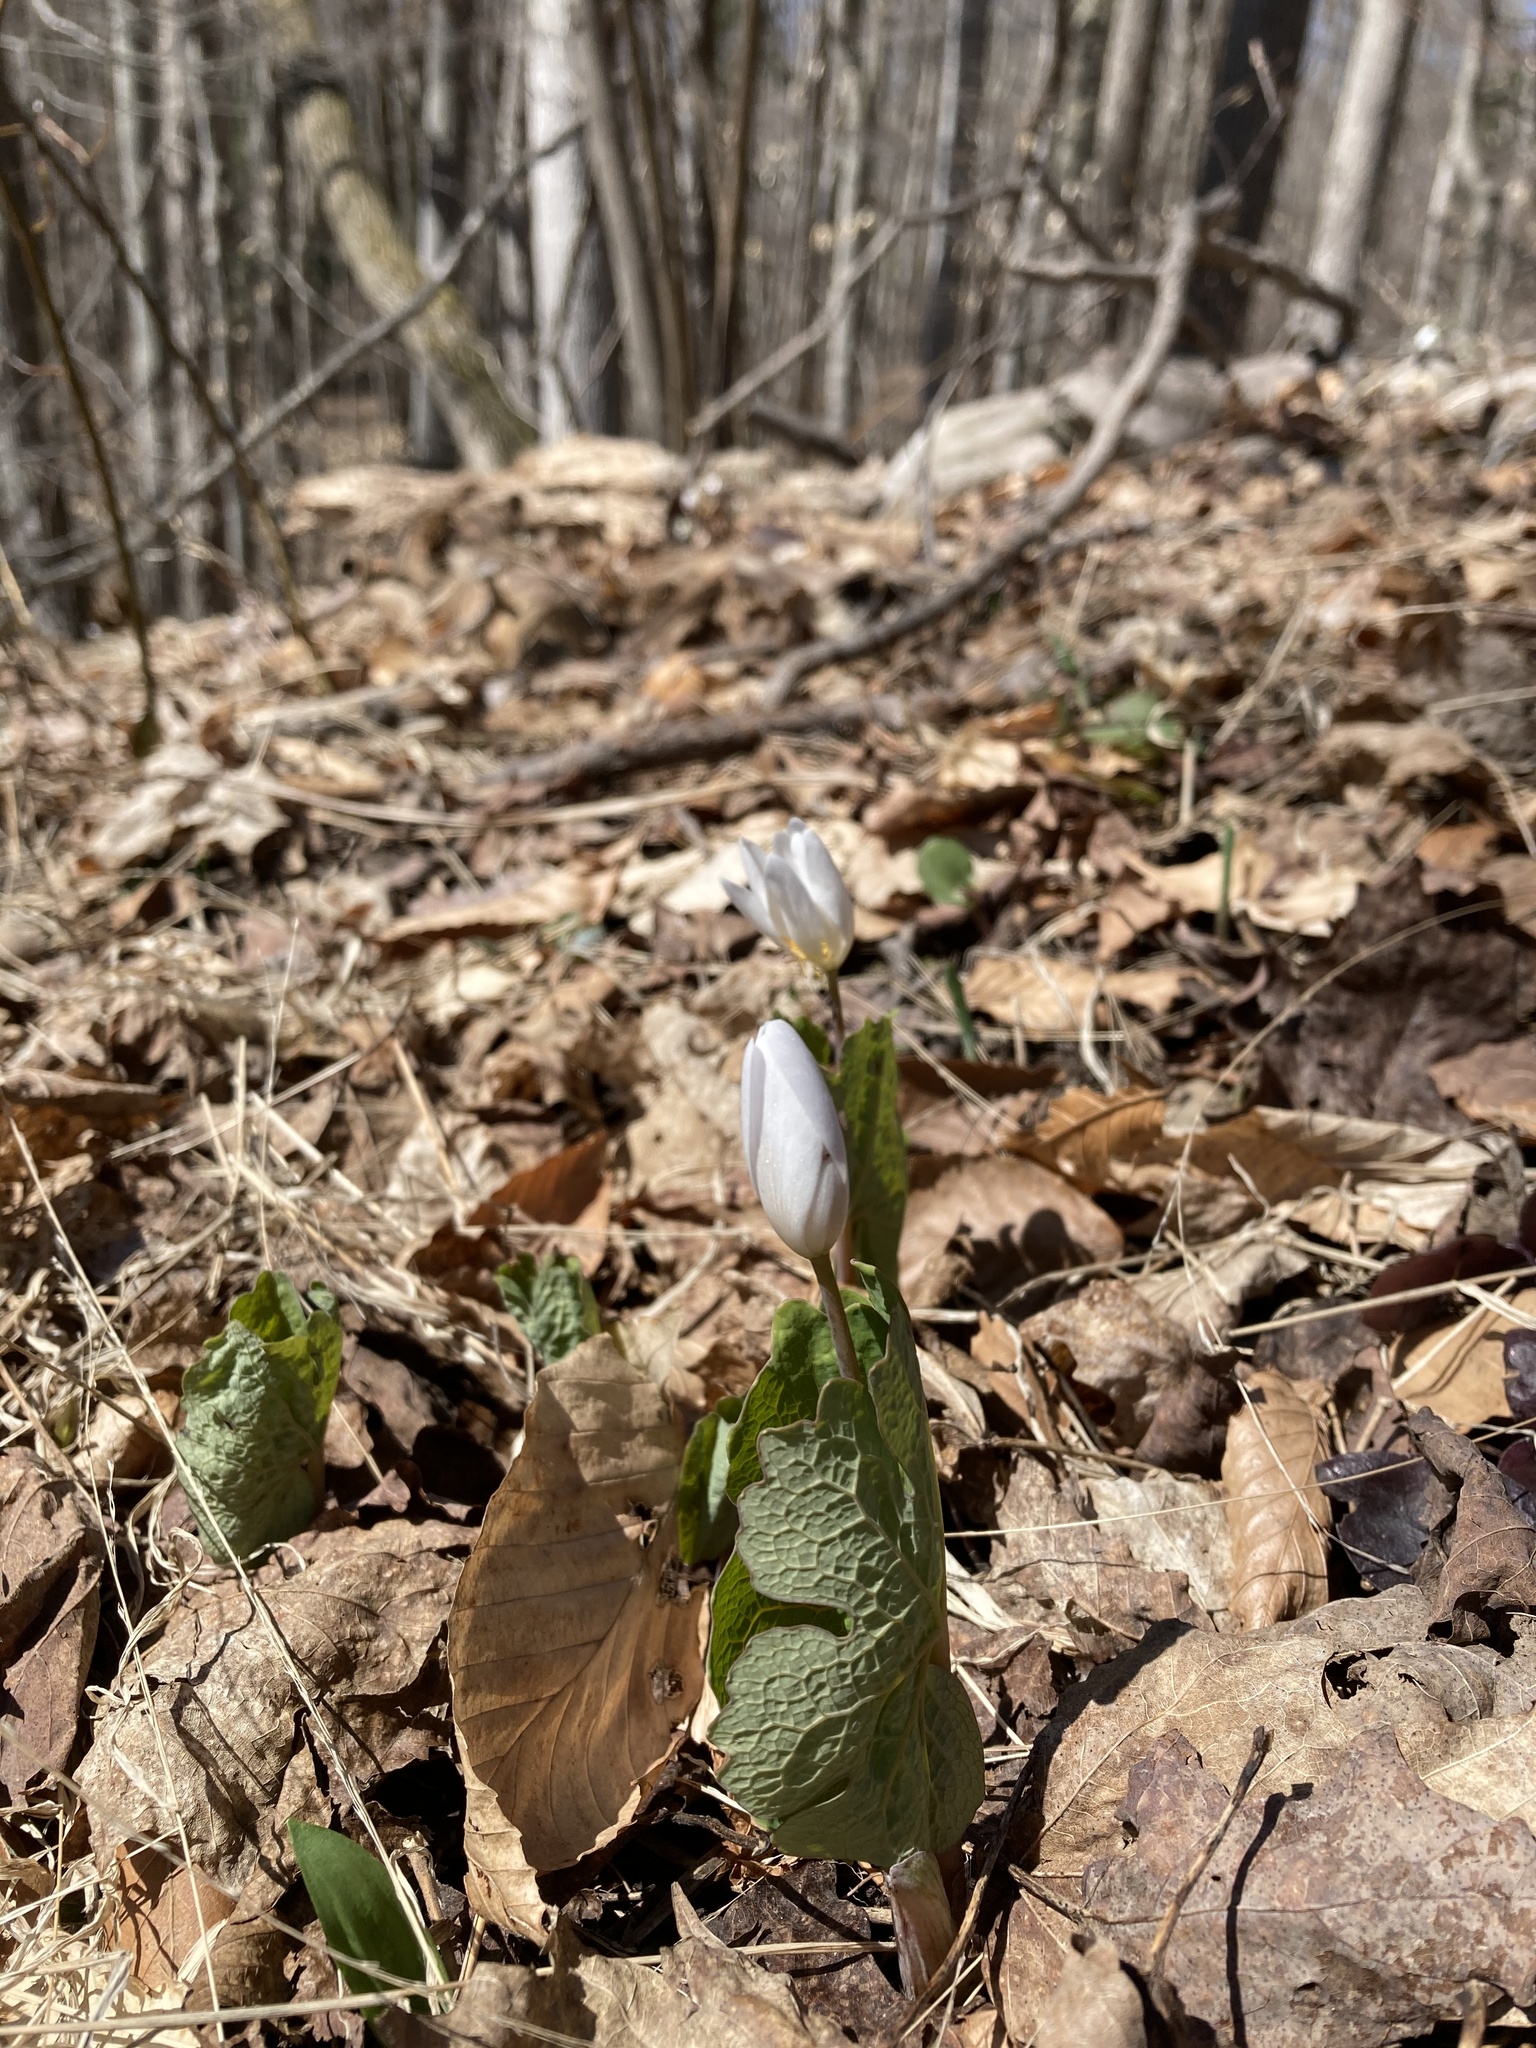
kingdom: Plantae
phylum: Tracheophyta
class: Magnoliopsida
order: Ranunculales
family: Papaveraceae
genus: Sanguinaria
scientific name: Sanguinaria canadensis
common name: Bloodroot
